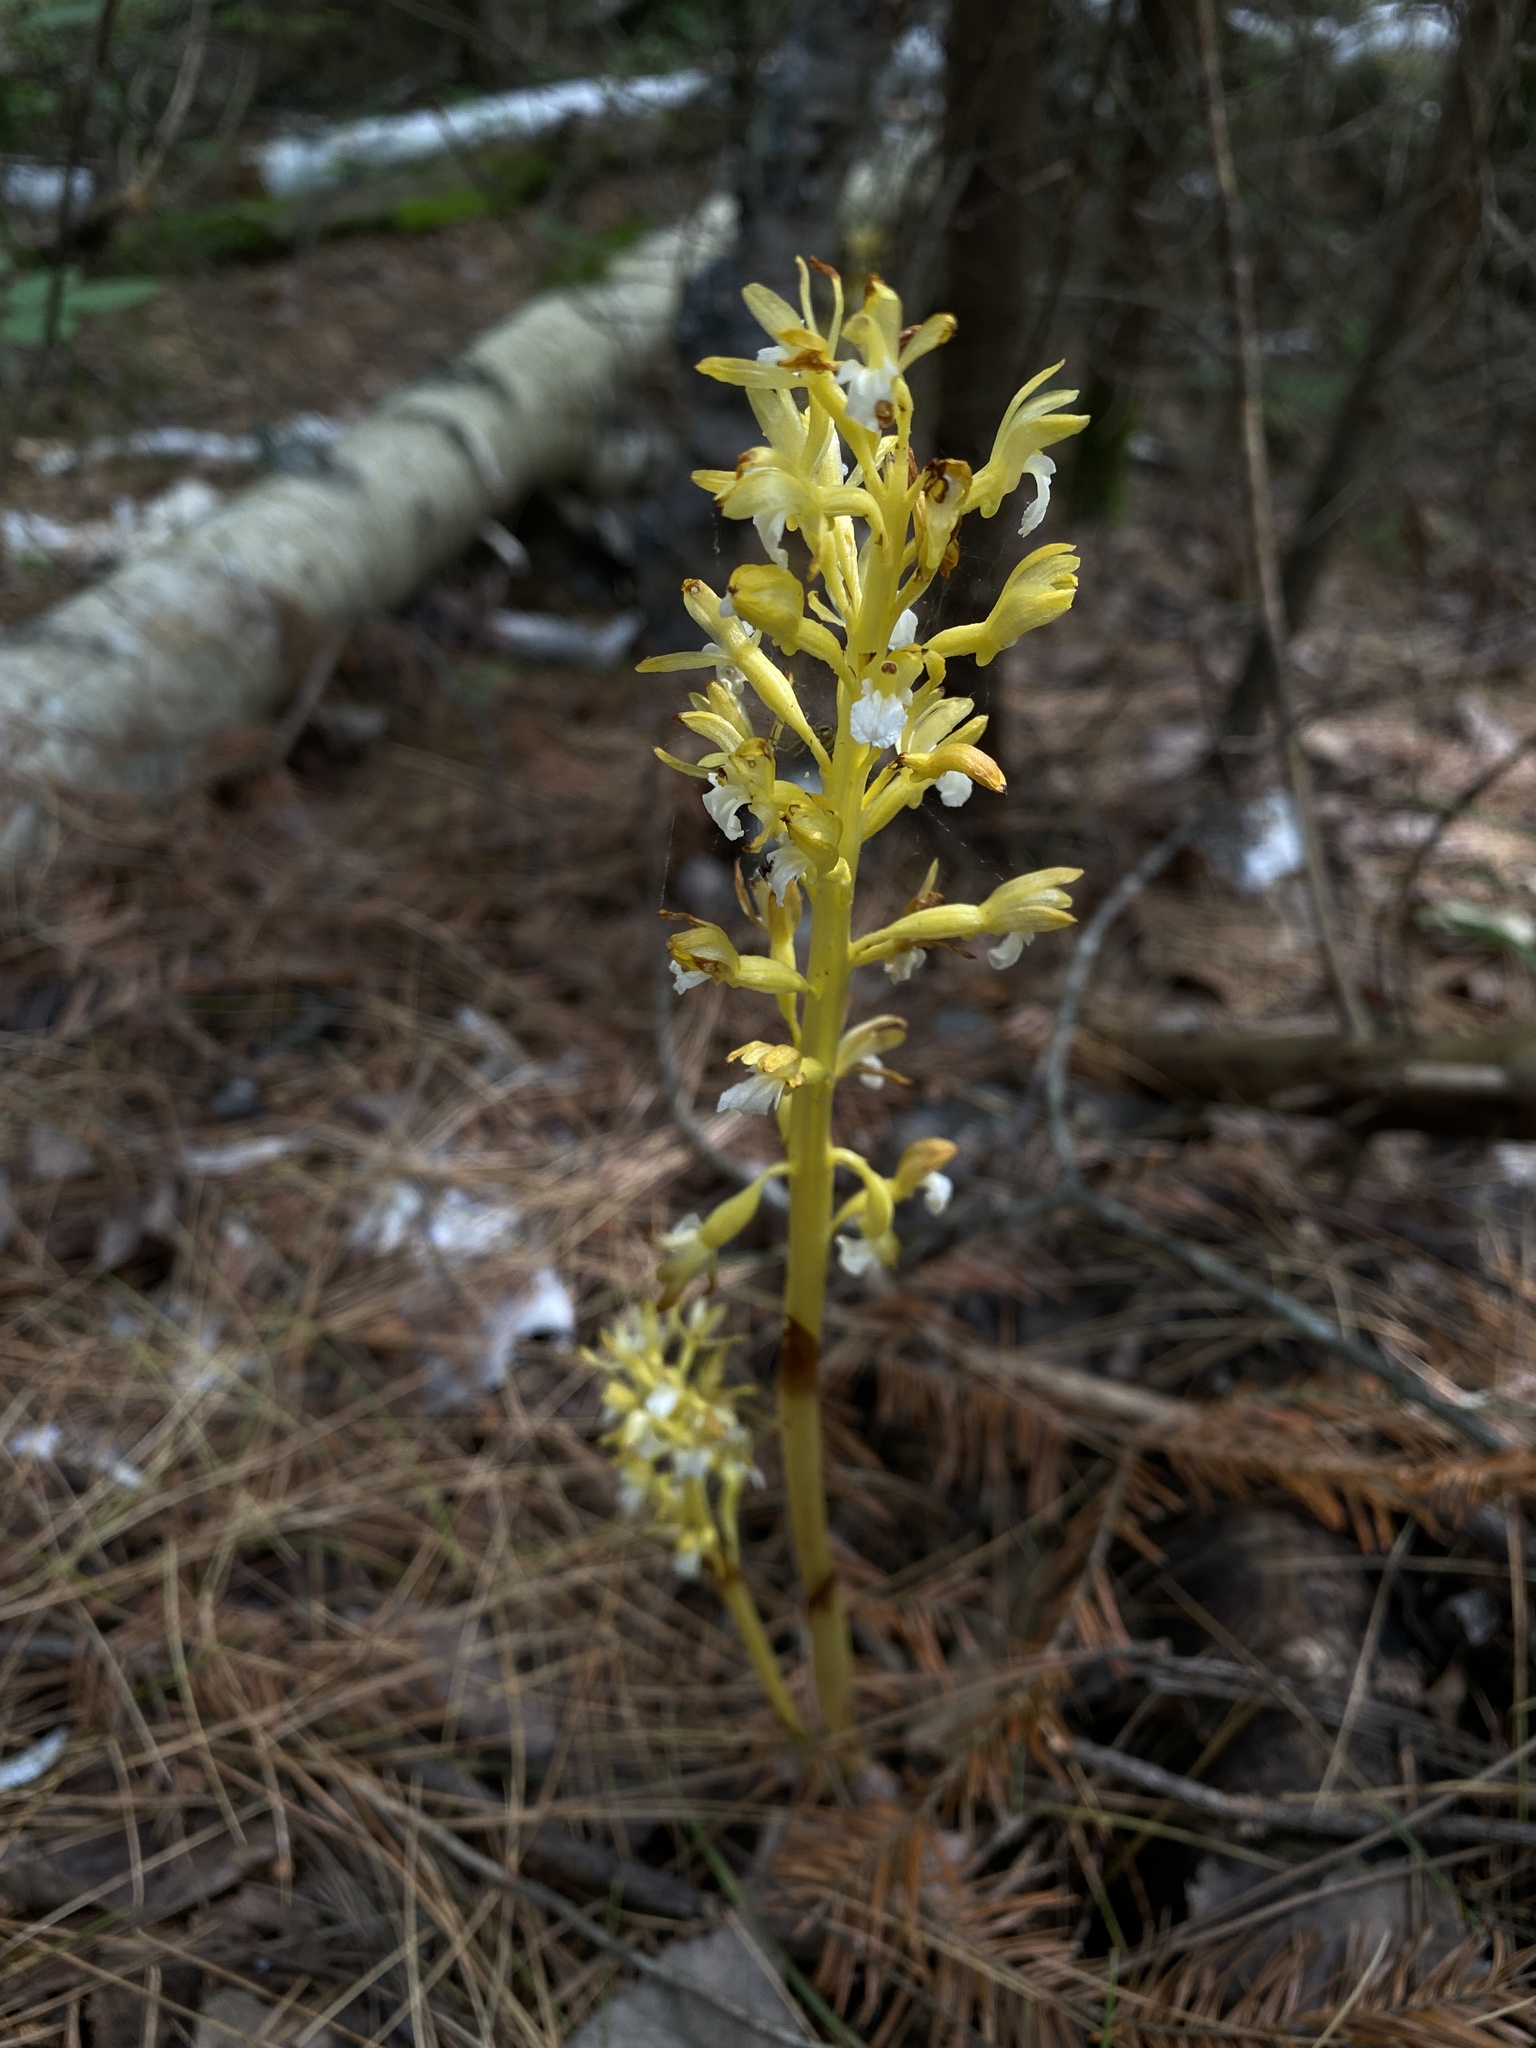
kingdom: Plantae
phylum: Tracheophyta
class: Liliopsida
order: Asparagales
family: Orchidaceae
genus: Corallorhiza
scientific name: Corallorhiza maculata
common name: Spotted coralroot
